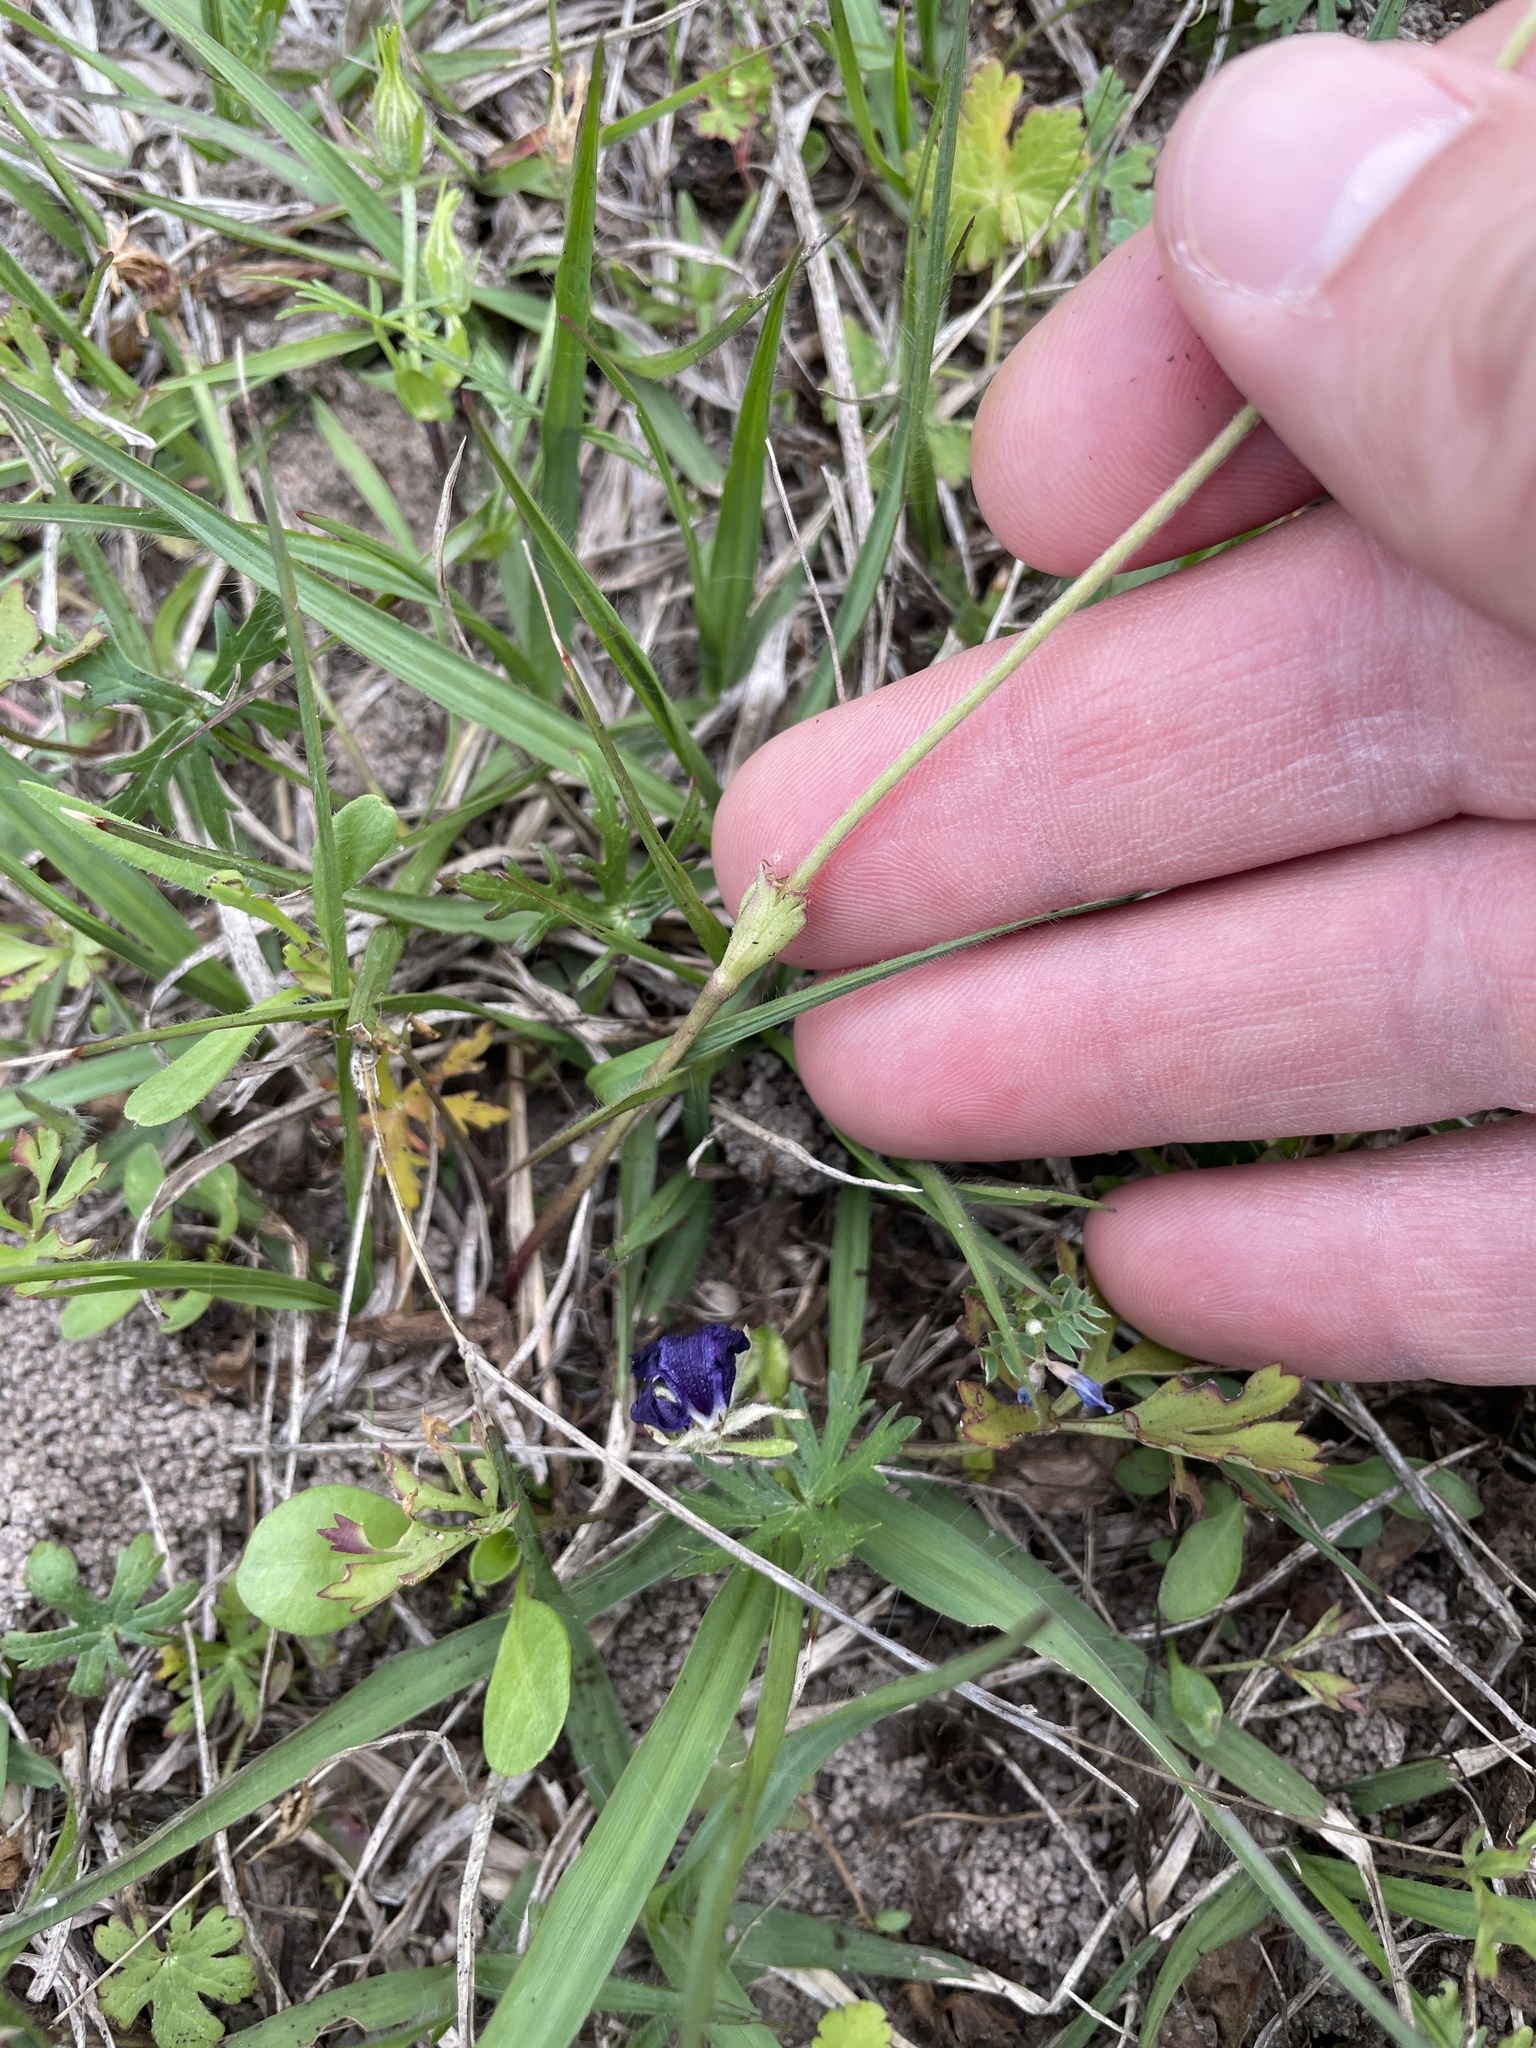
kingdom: Plantae
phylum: Tracheophyta
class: Magnoliopsida
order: Ranunculales
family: Ranunculaceae
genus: Anemone
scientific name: Anemone caroliniana
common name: Carolina anemone
